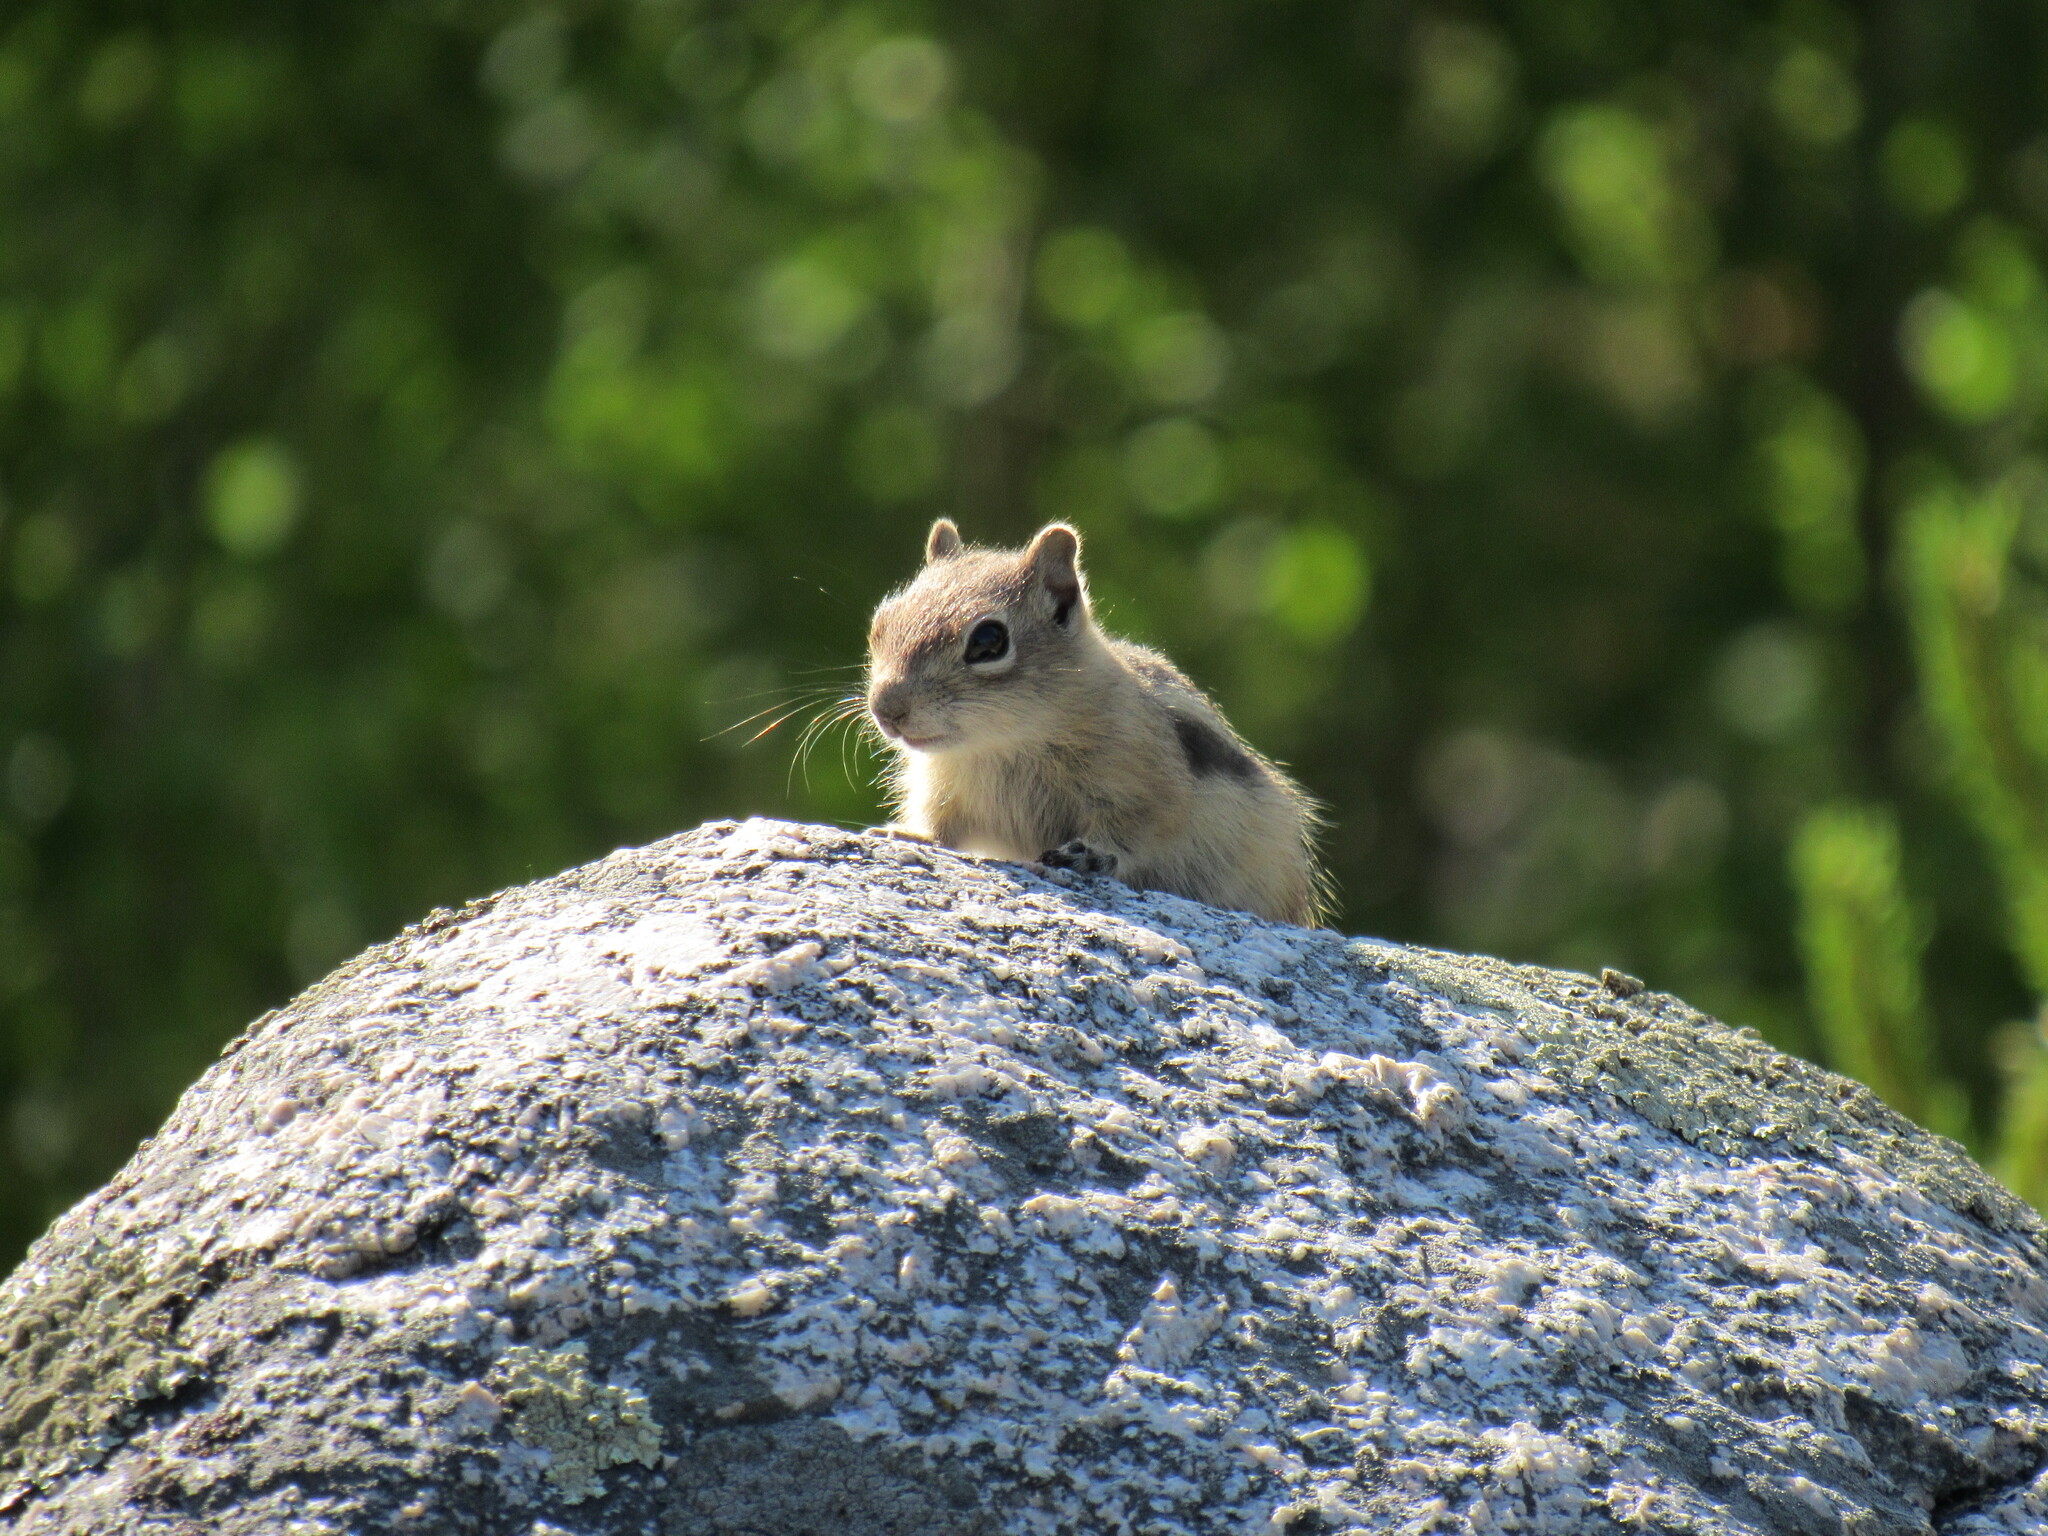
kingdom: Animalia
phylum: Chordata
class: Mammalia
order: Rodentia
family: Sciuridae
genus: Callospermophilus
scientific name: Callospermophilus lateralis
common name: Golden-mantled ground squirrel
